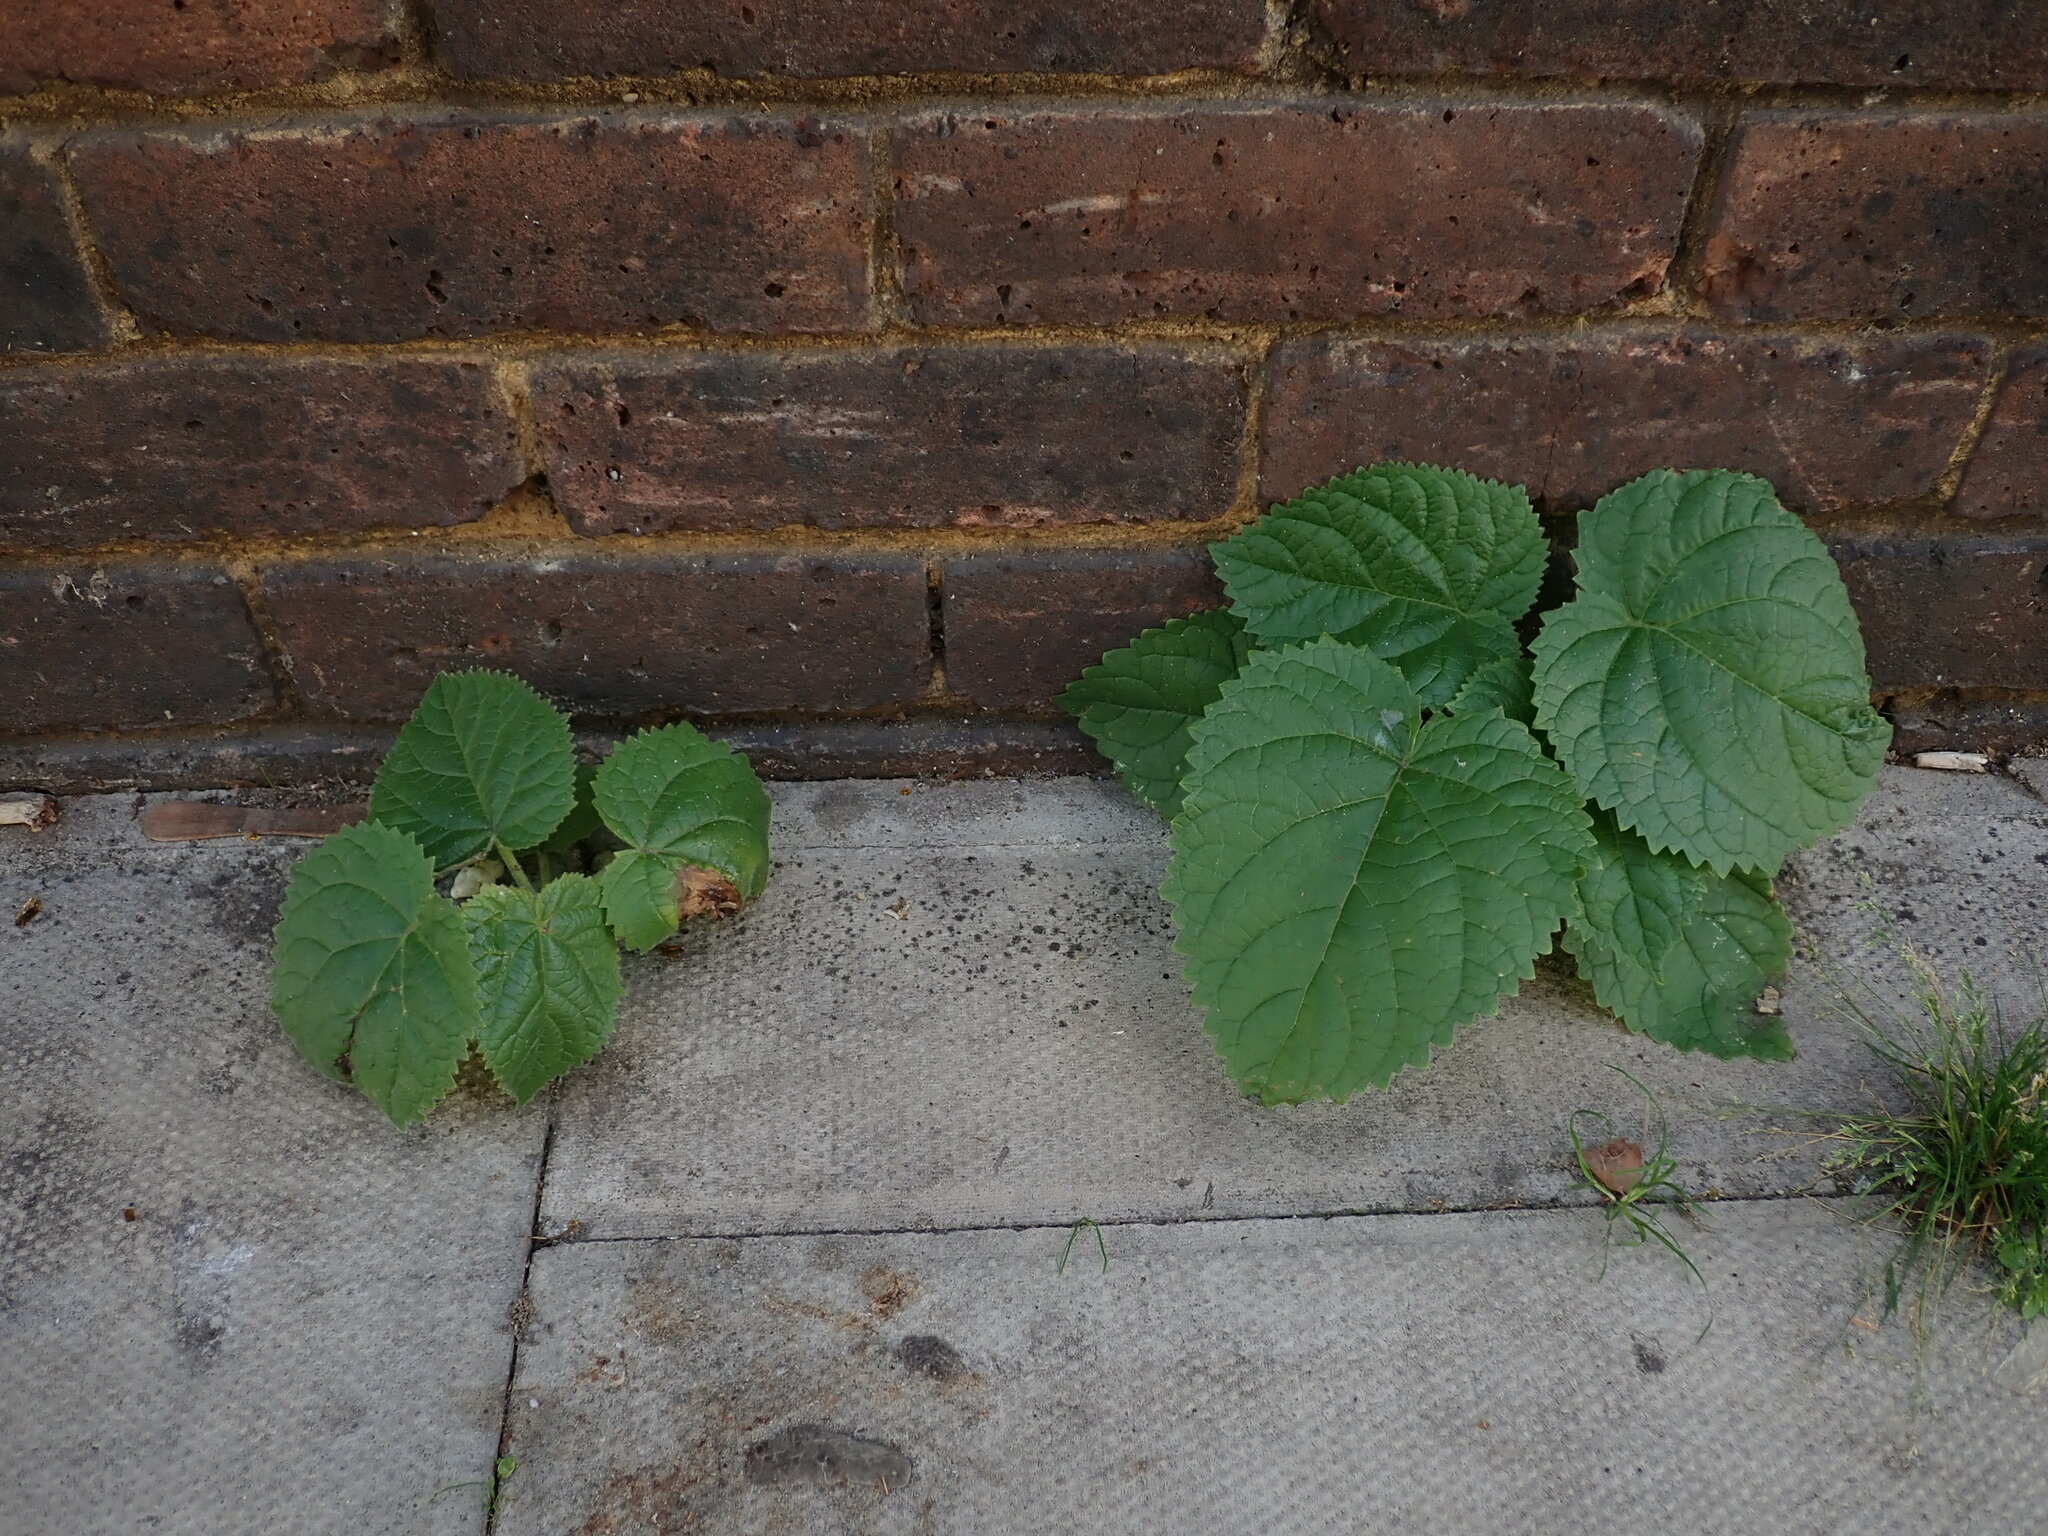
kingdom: Plantae
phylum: Tracheophyta
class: Magnoliopsida
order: Lamiales
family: Paulowniaceae
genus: Paulownia
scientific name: Paulownia tomentosa
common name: Foxglove-tree
